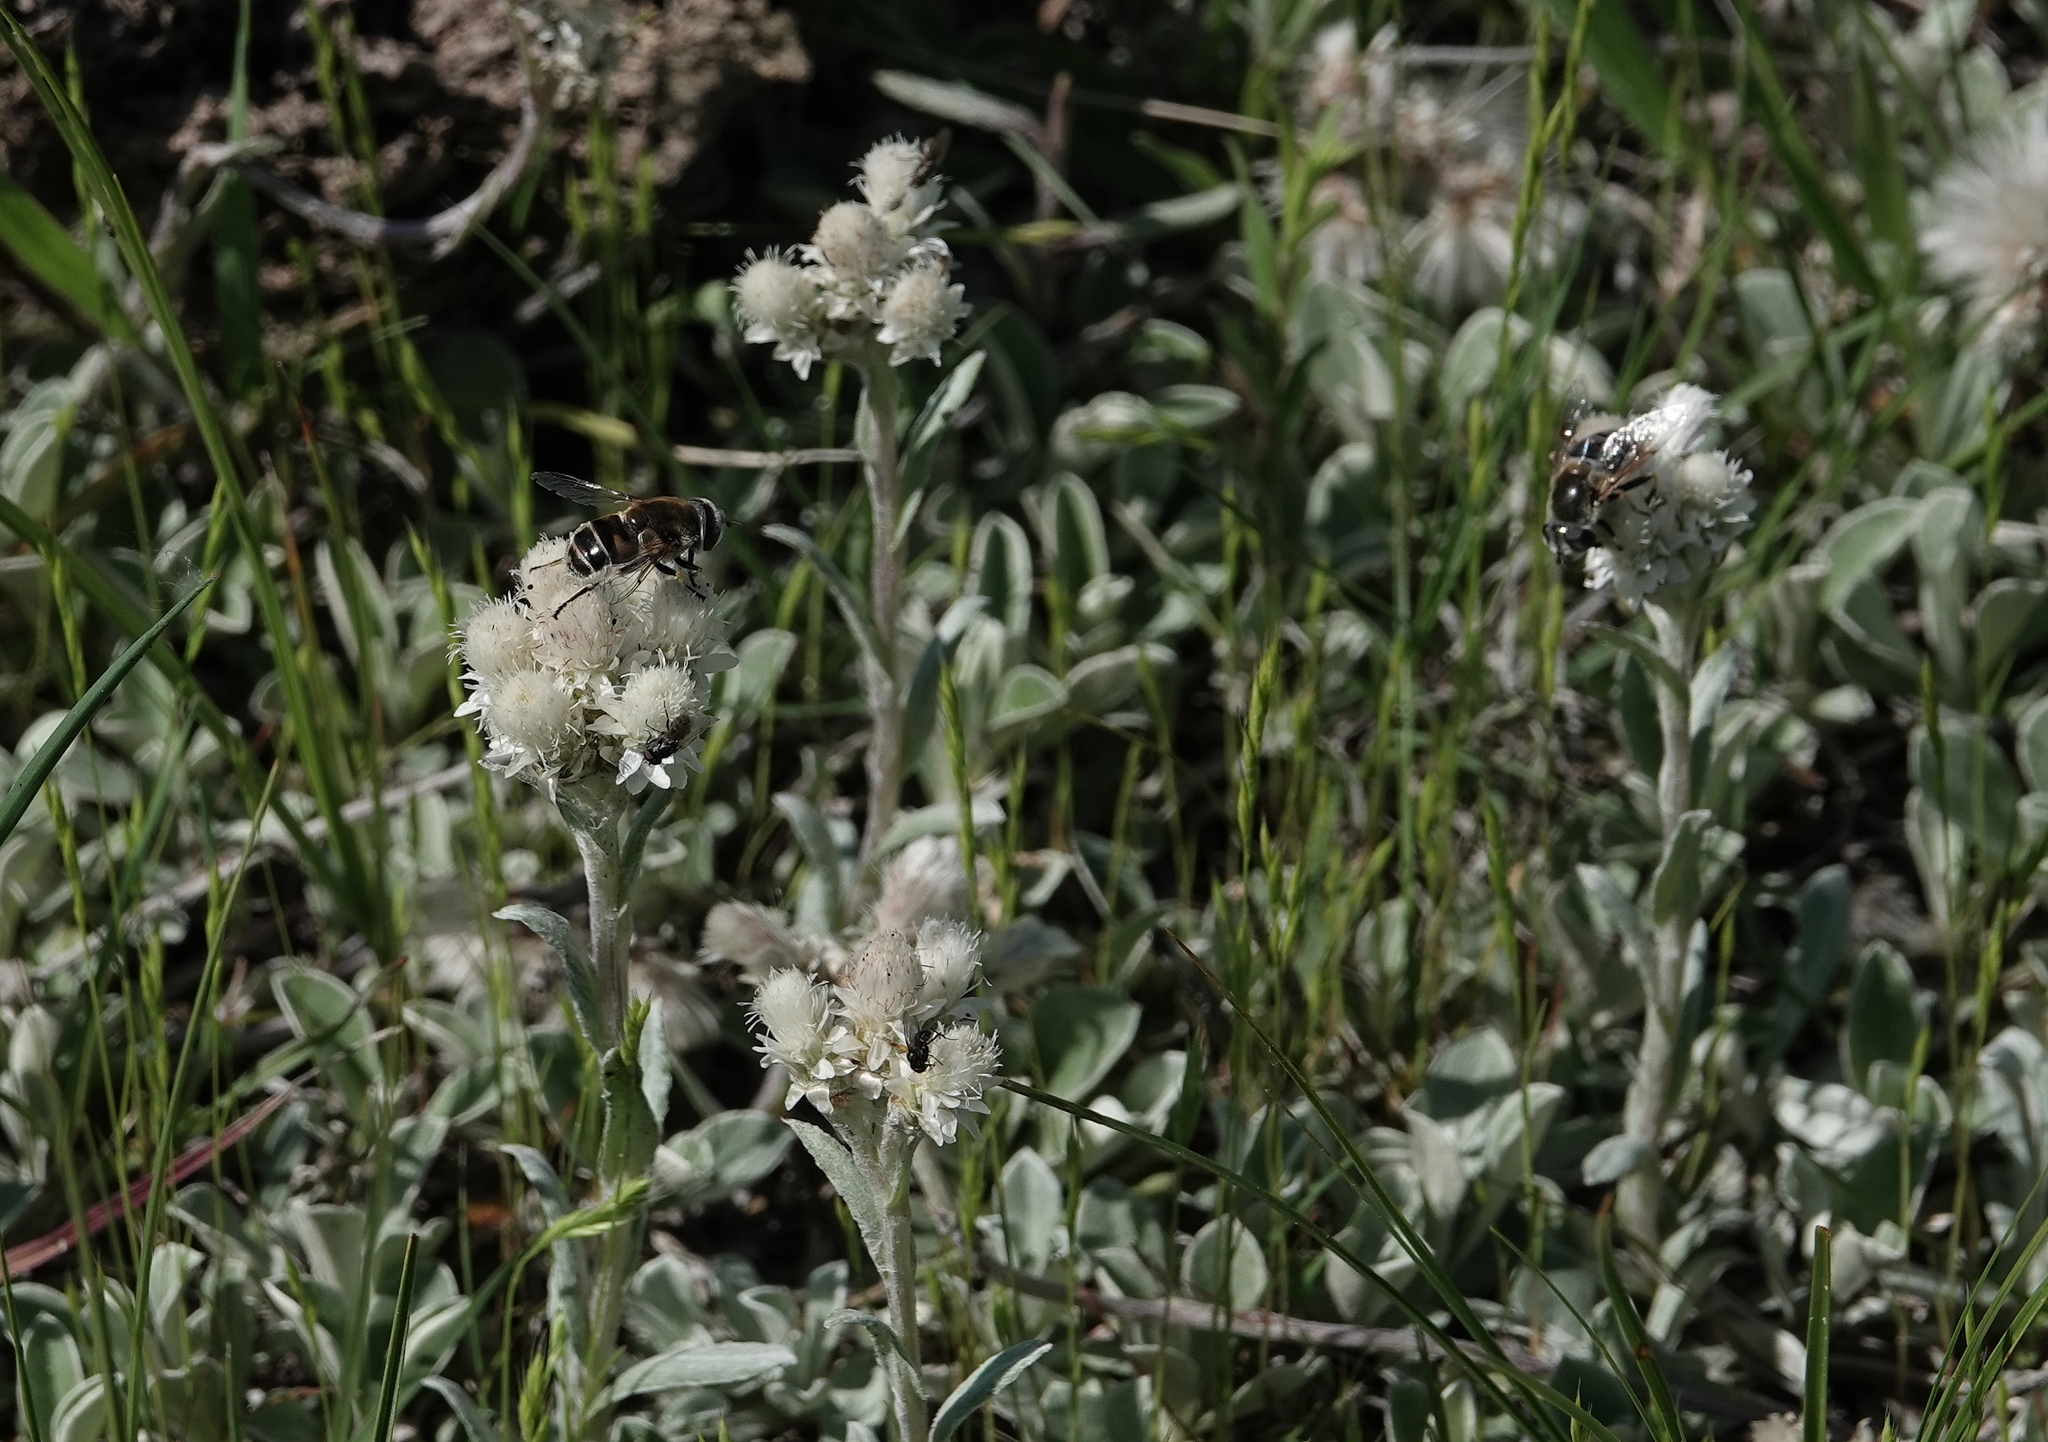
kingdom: Animalia
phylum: Arthropoda
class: Insecta
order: Diptera
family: Syrphidae
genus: Eristalis
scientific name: Eristalis stipator
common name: Yellow-shouldered drone fly
